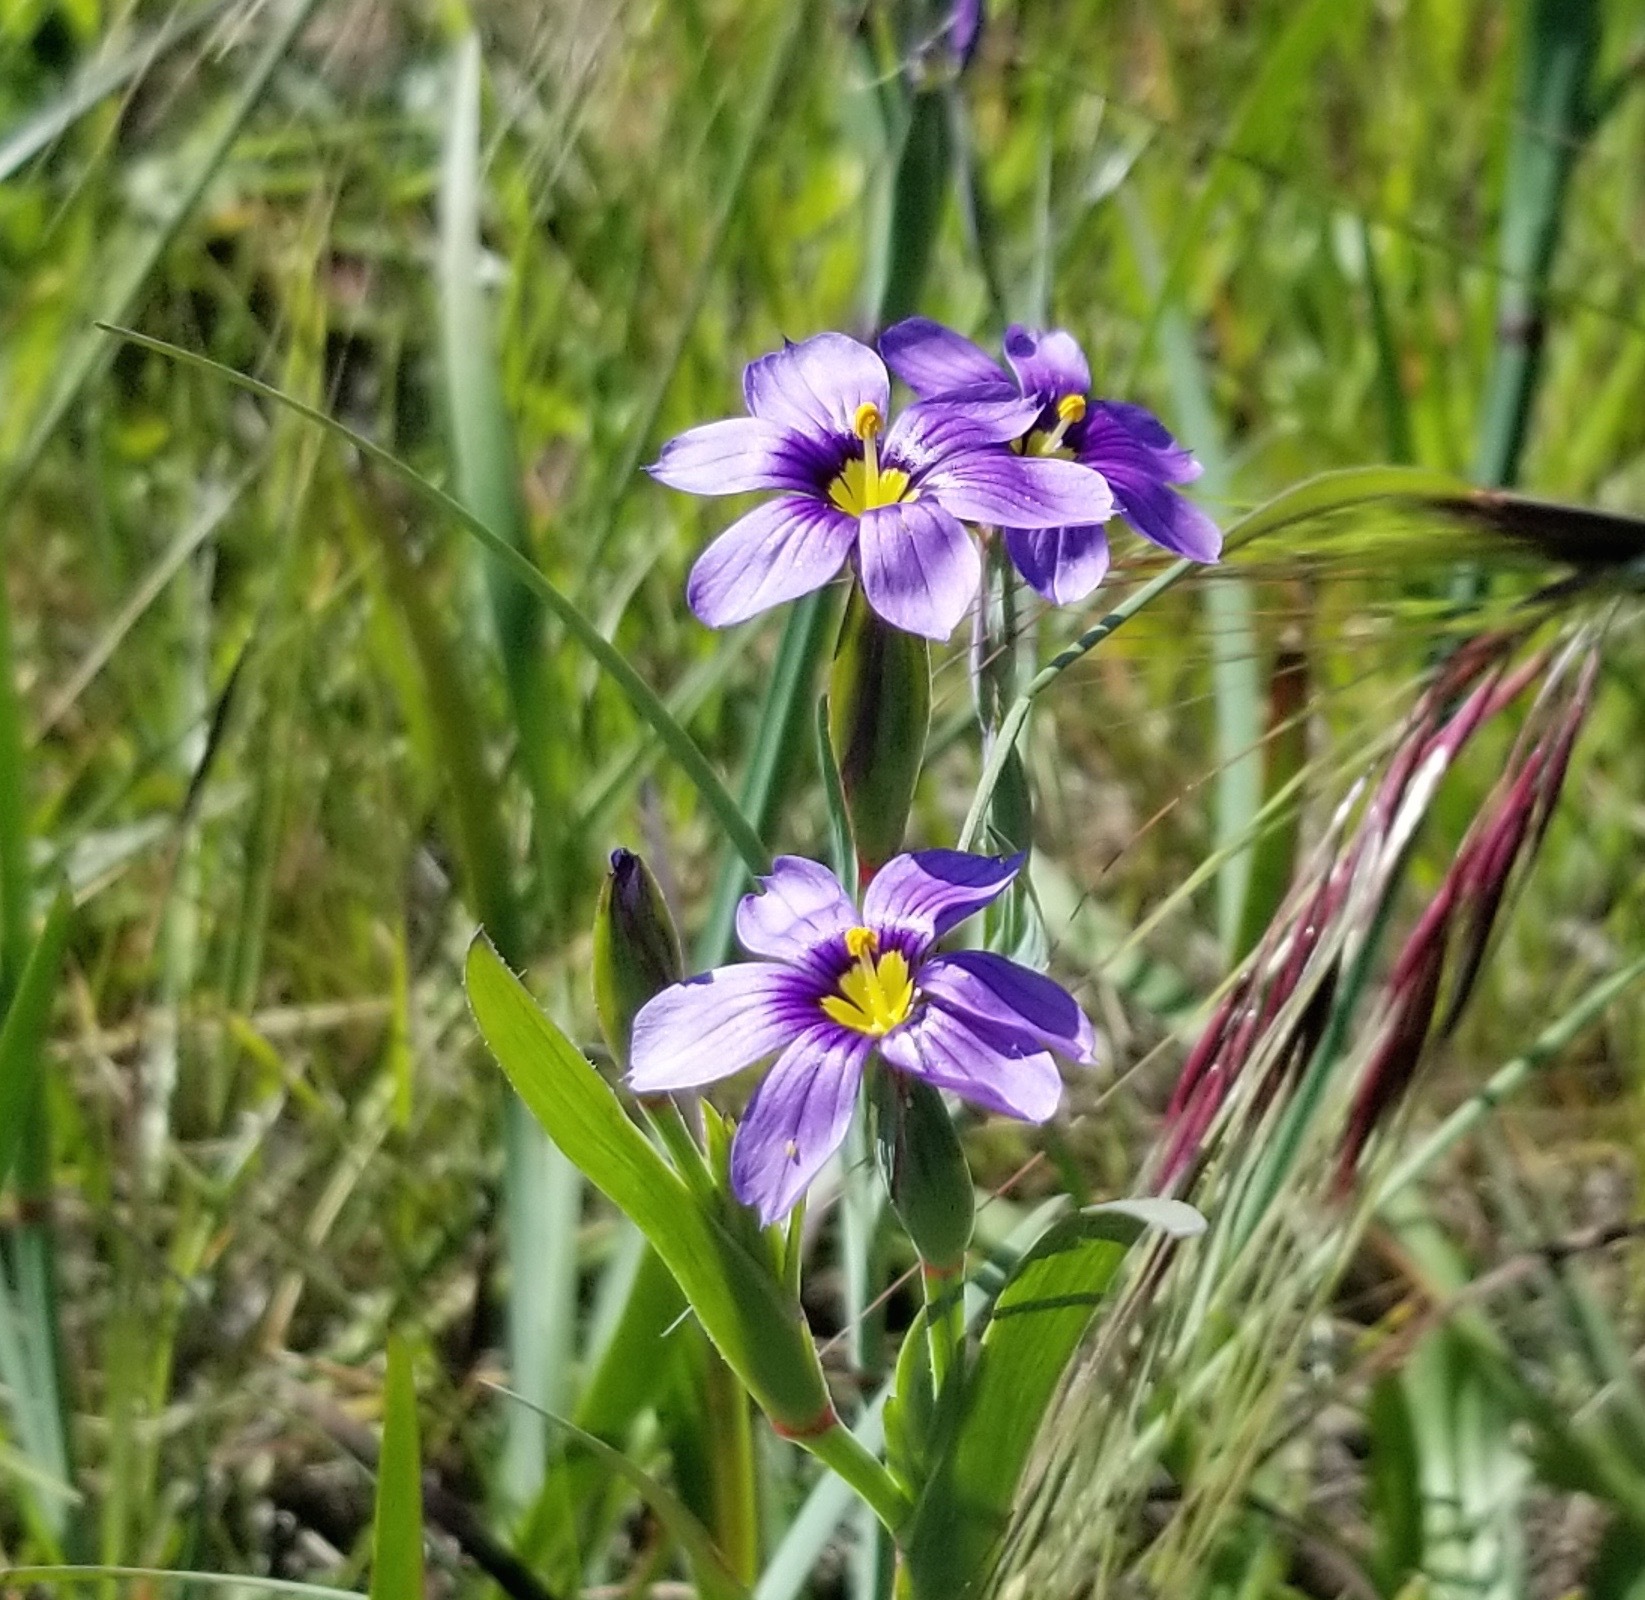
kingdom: Plantae
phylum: Tracheophyta
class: Liliopsida
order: Asparagales
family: Iridaceae
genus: Sisyrinchium
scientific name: Sisyrinchium bellum
